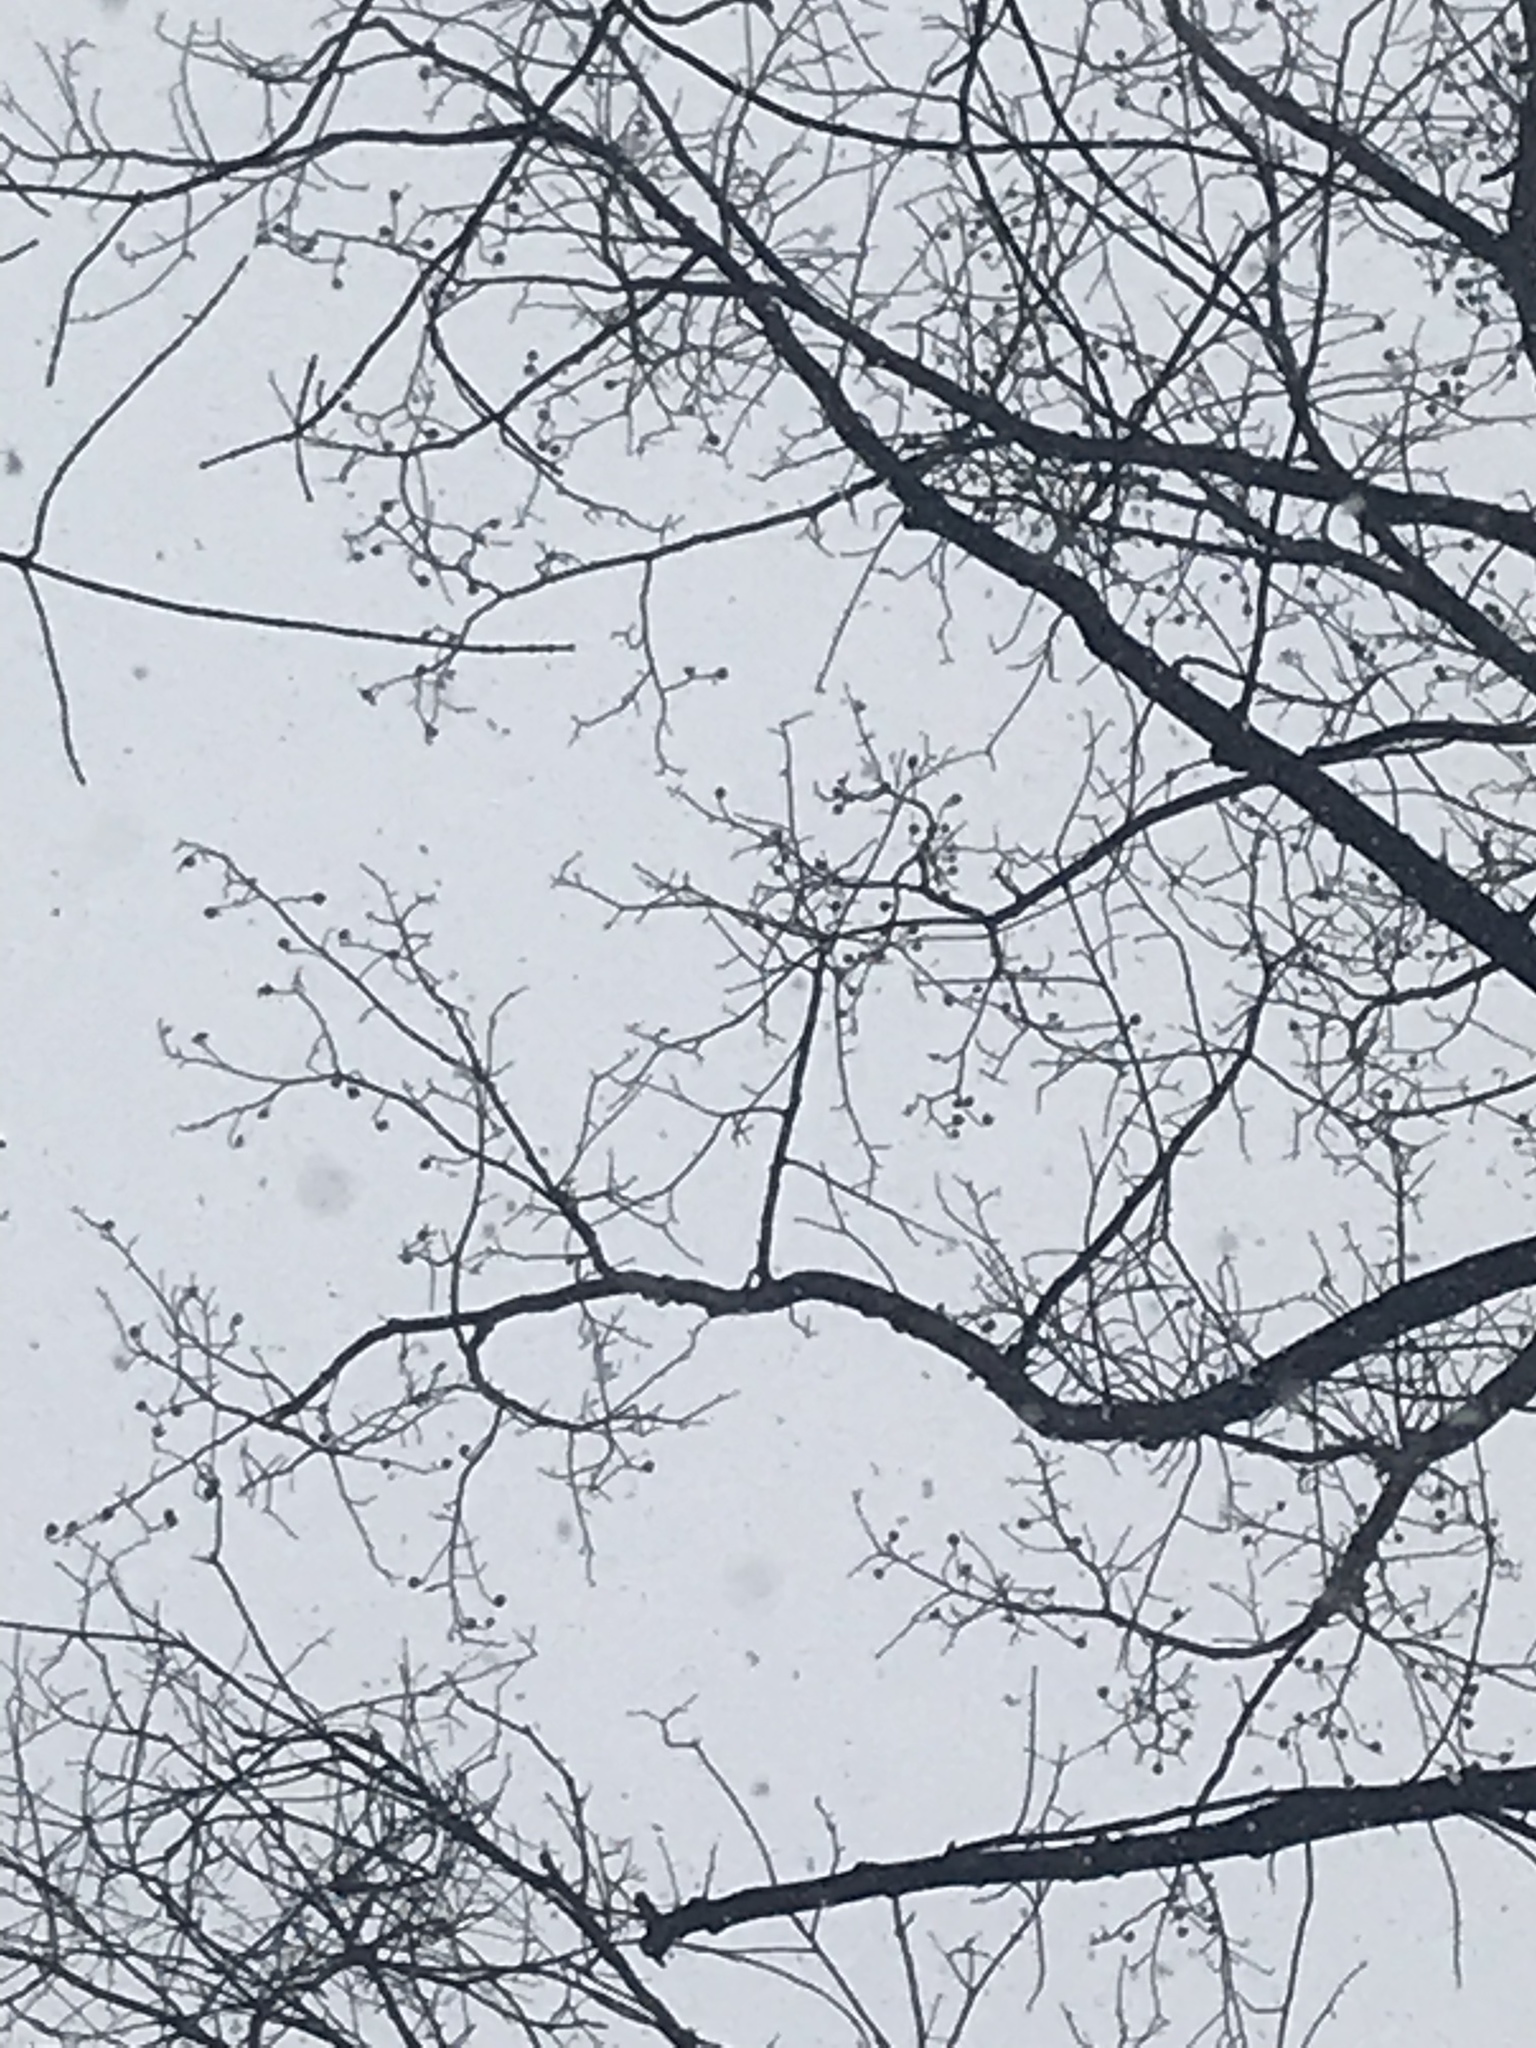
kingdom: Plantae
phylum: Tracheophyta
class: Magnoliopsida
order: Magnoliales
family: Magnoliaceae
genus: Liriodendron
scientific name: Liriodendron tulipifera
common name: Tulip tree
